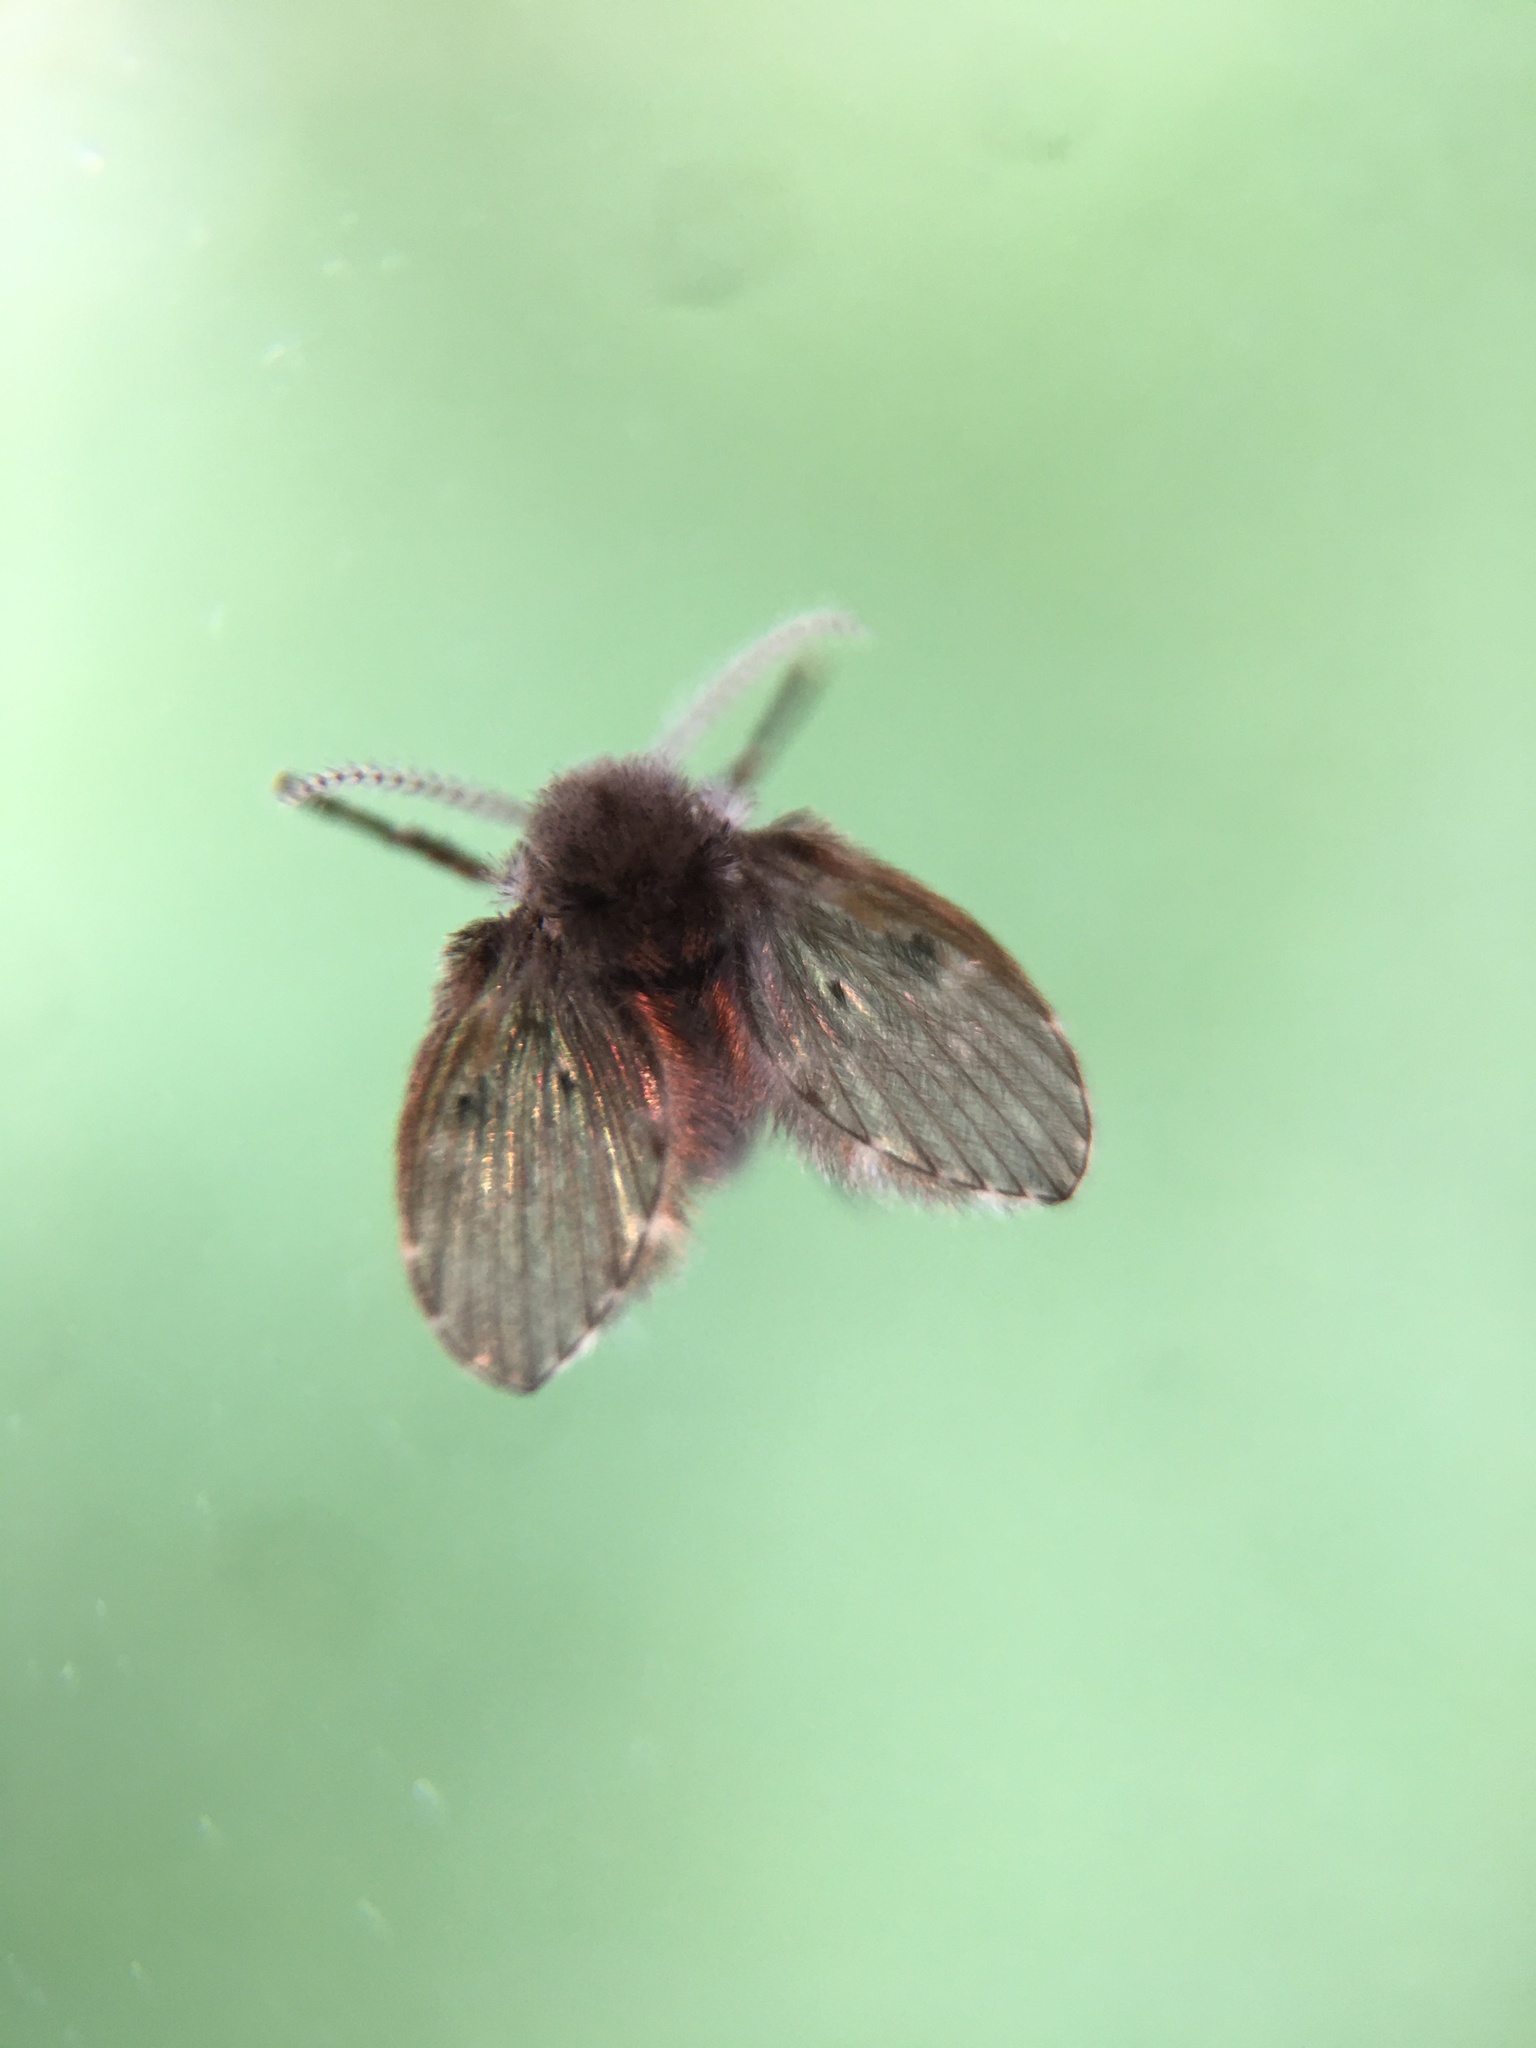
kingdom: Animalia
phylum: Arthropoda
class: Insecta
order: Diptera
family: Psychodidae
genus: Clogmia
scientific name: Clogmia albipunctatus
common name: White-spotted moth fly
